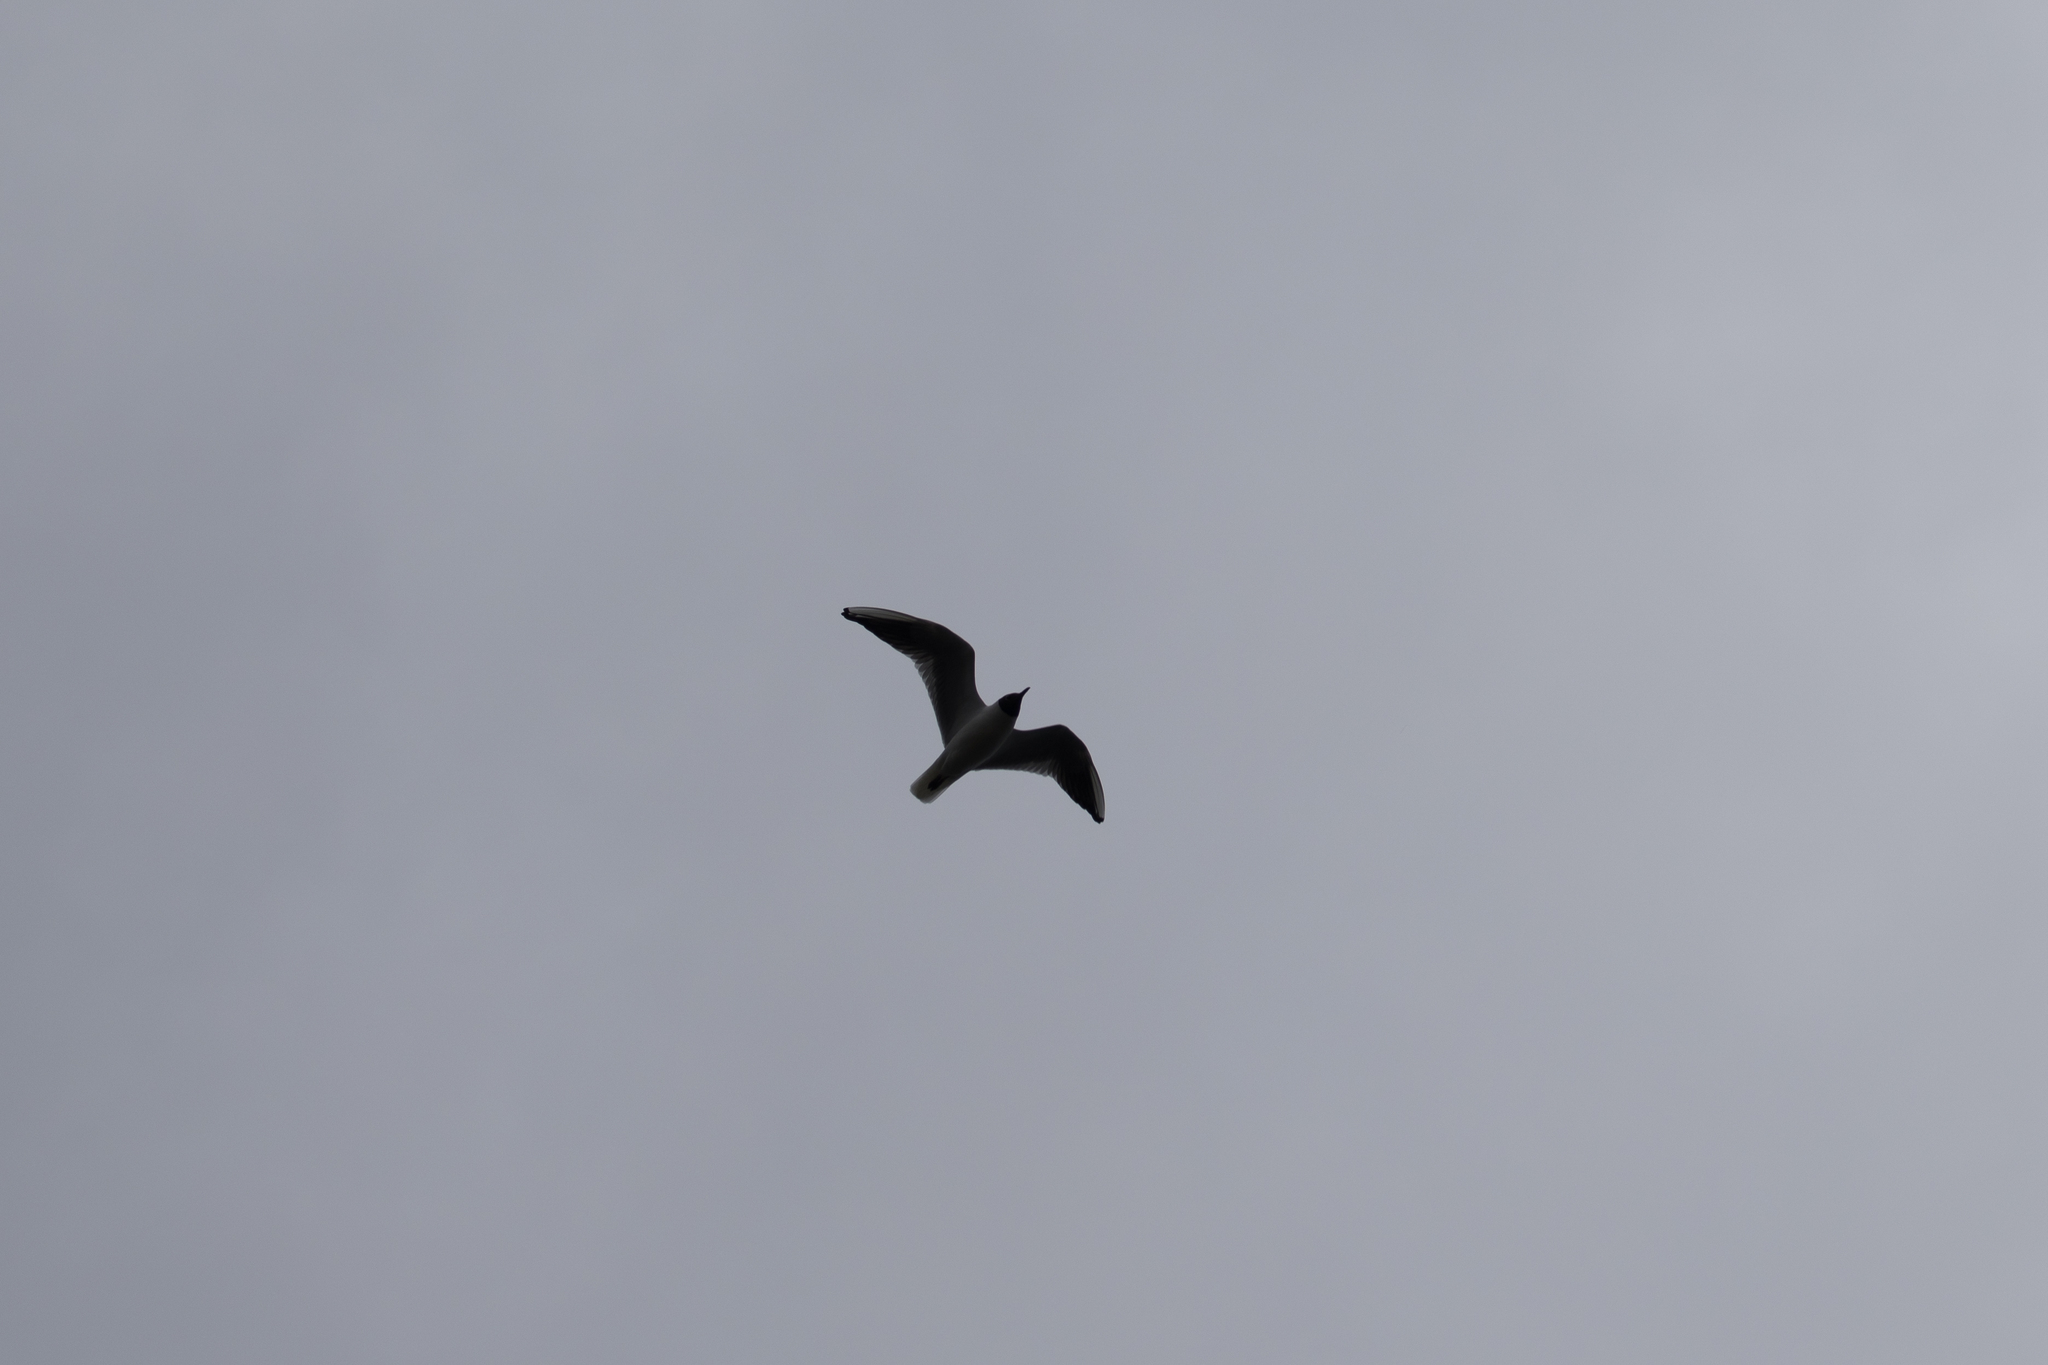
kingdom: Animalia
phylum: Chordata
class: Aves
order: Charadriiformes
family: Laridae
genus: Chroicocephalus
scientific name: Chroicocephalus ridibundus
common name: Black-headed gull
